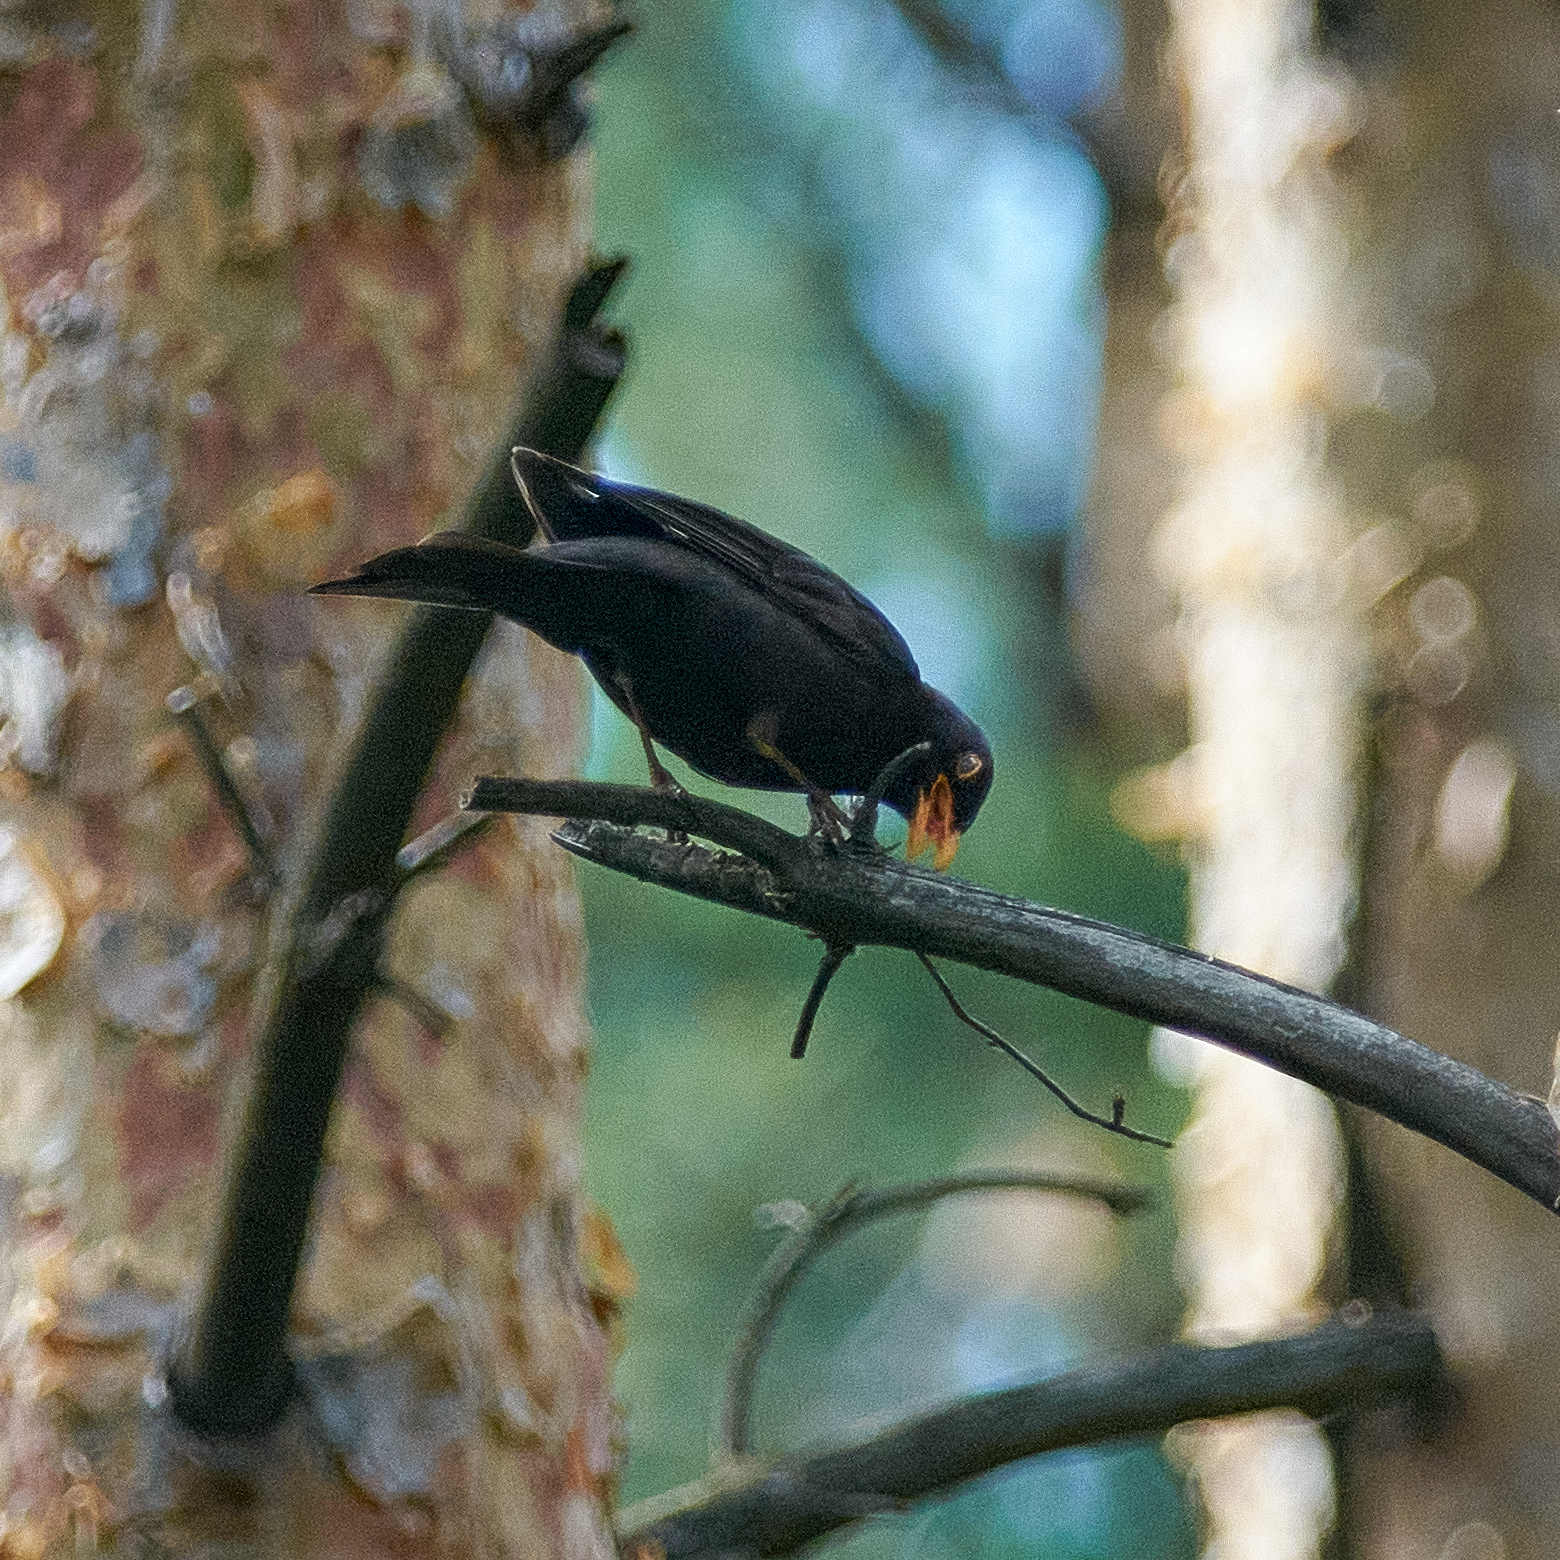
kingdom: Animalia
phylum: Chordata
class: Aves
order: Passeriformes
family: Turdidae
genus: Turdus
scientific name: Turdus merula
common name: Common blackbird
